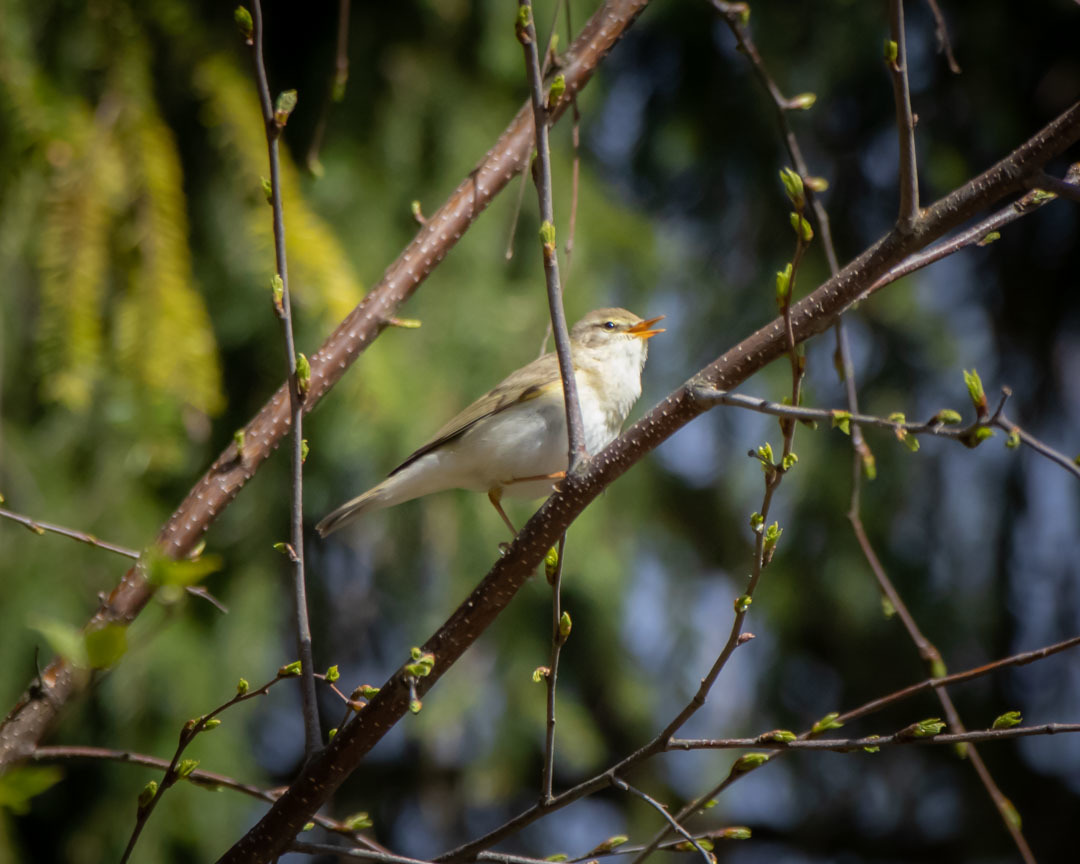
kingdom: Animalia
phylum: Chordata
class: Aves
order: Passeriformes
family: Phylloscopidae
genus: Phylloscopus
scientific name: Phylloscopus trochilus
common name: Willow warbler
